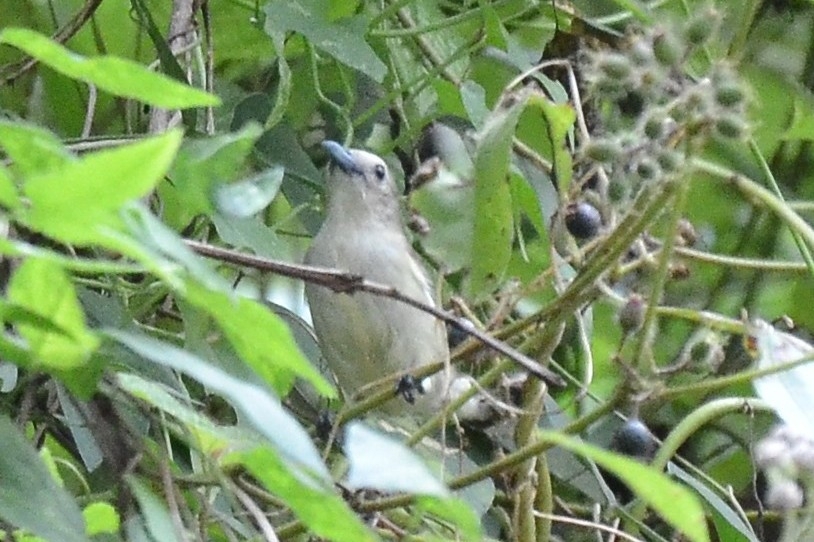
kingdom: Animalia
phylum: Chordata
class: Aves
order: Passeriformes
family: Dicaeidae
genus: Dicaeum
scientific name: Dicaeum concolor
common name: Nilgiri flowerpecker
